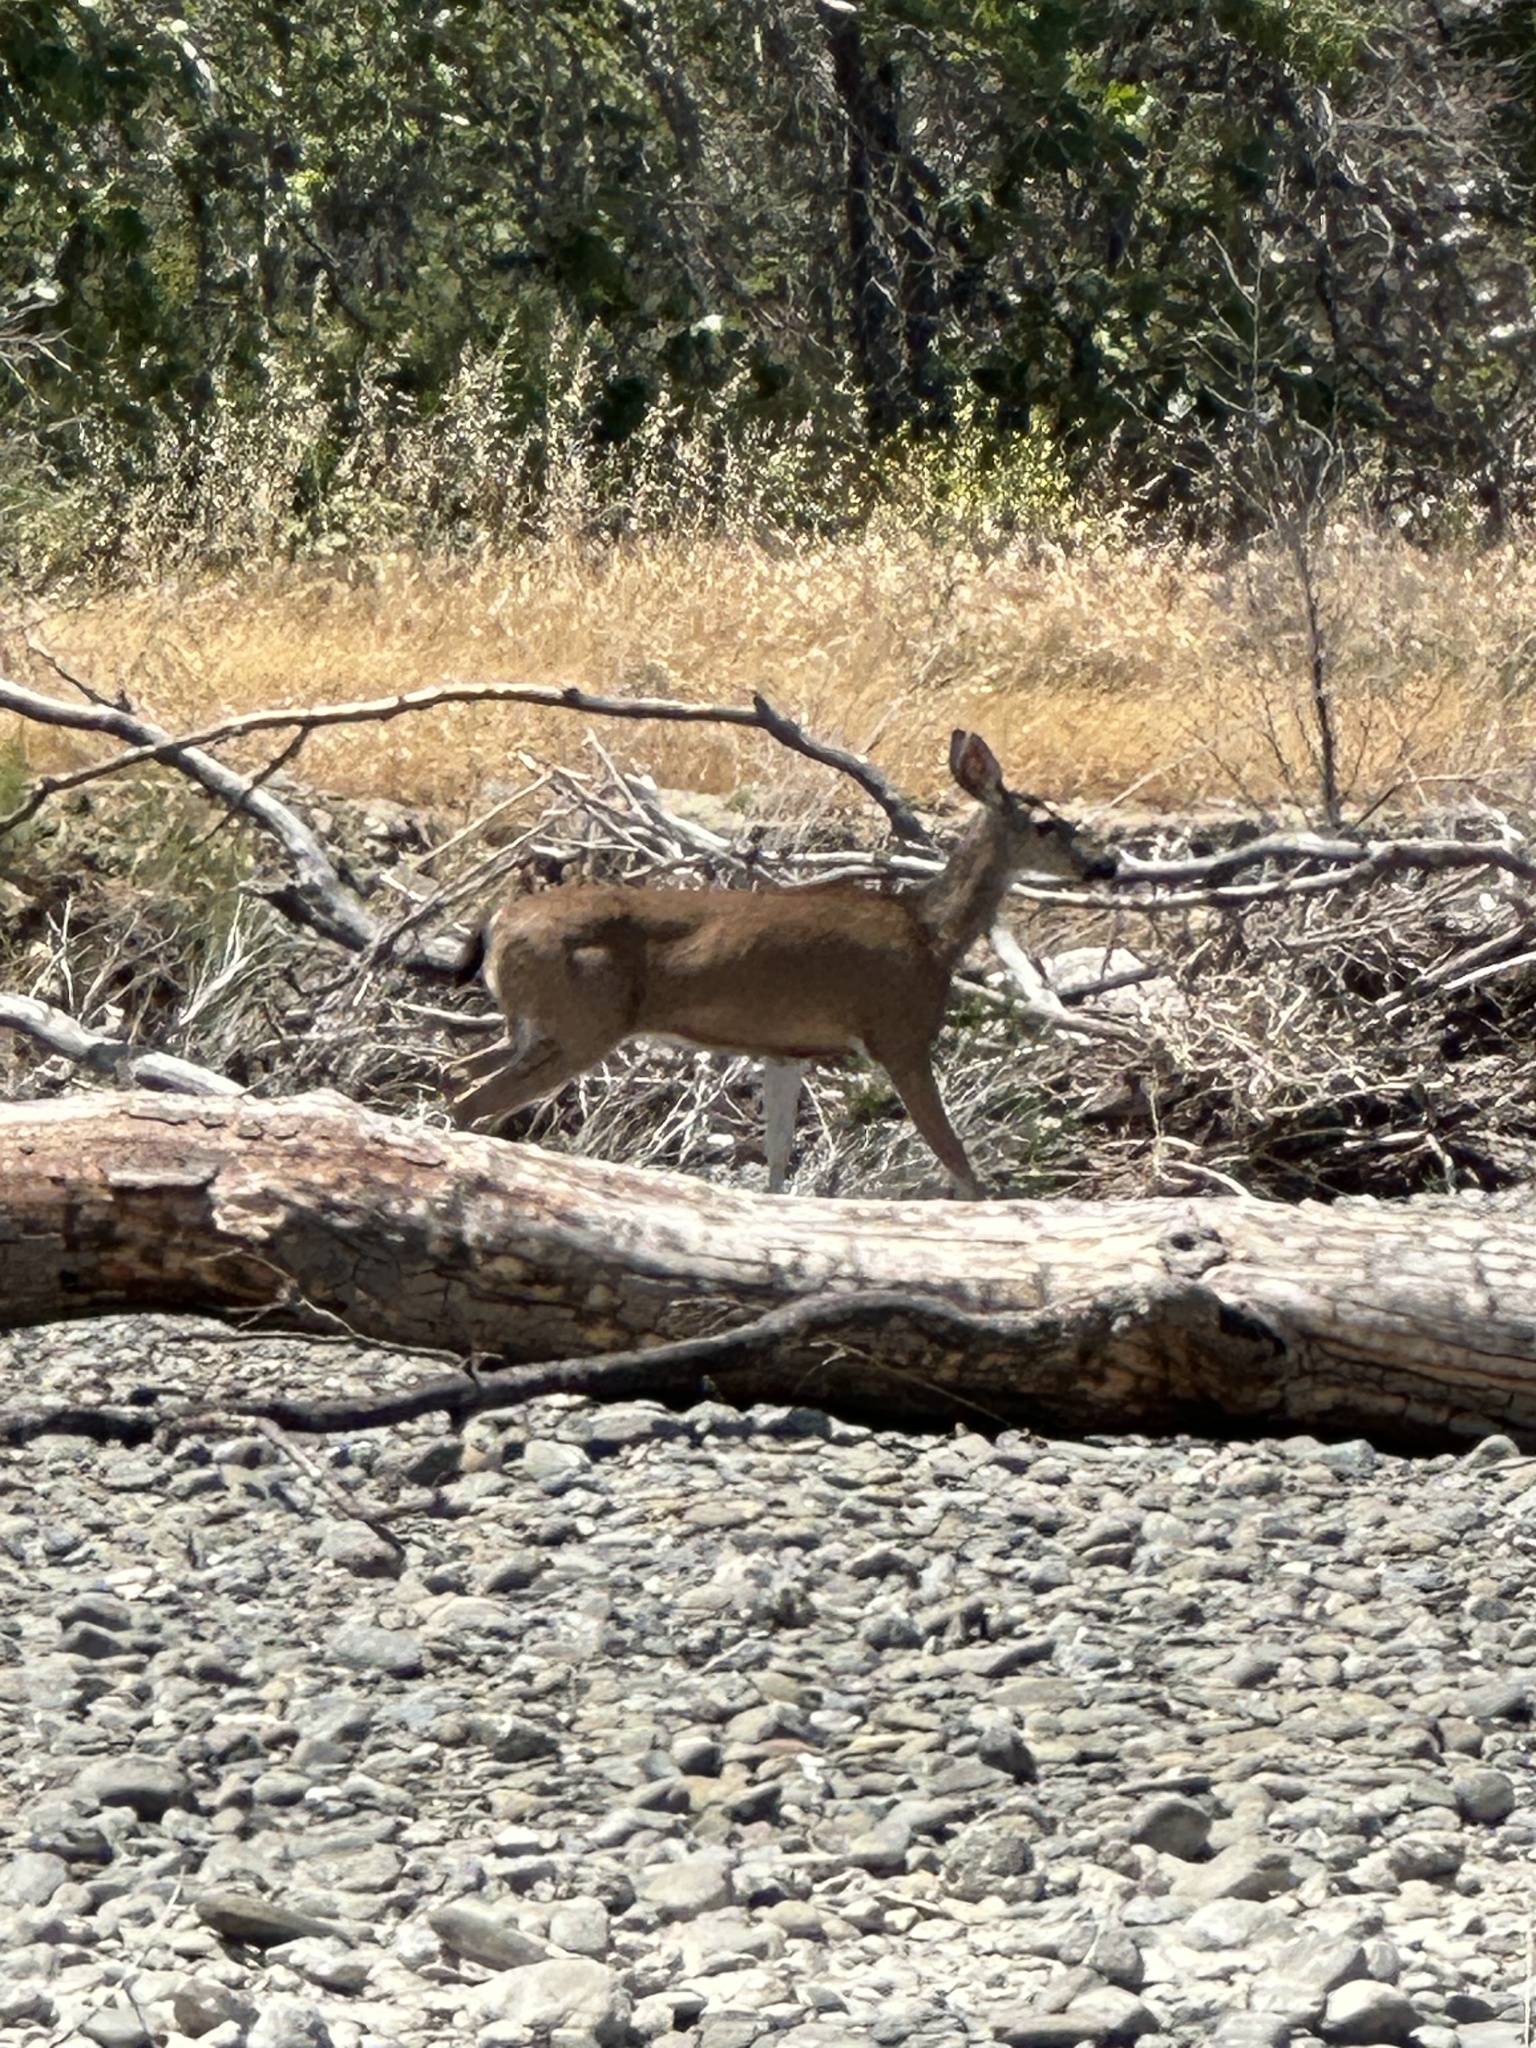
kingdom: Animalia
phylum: Chordata
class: Mammalia
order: Artiodactyla
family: Cervidae
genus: Odocoileus
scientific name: Odocoileus hemionus
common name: Mule deer
